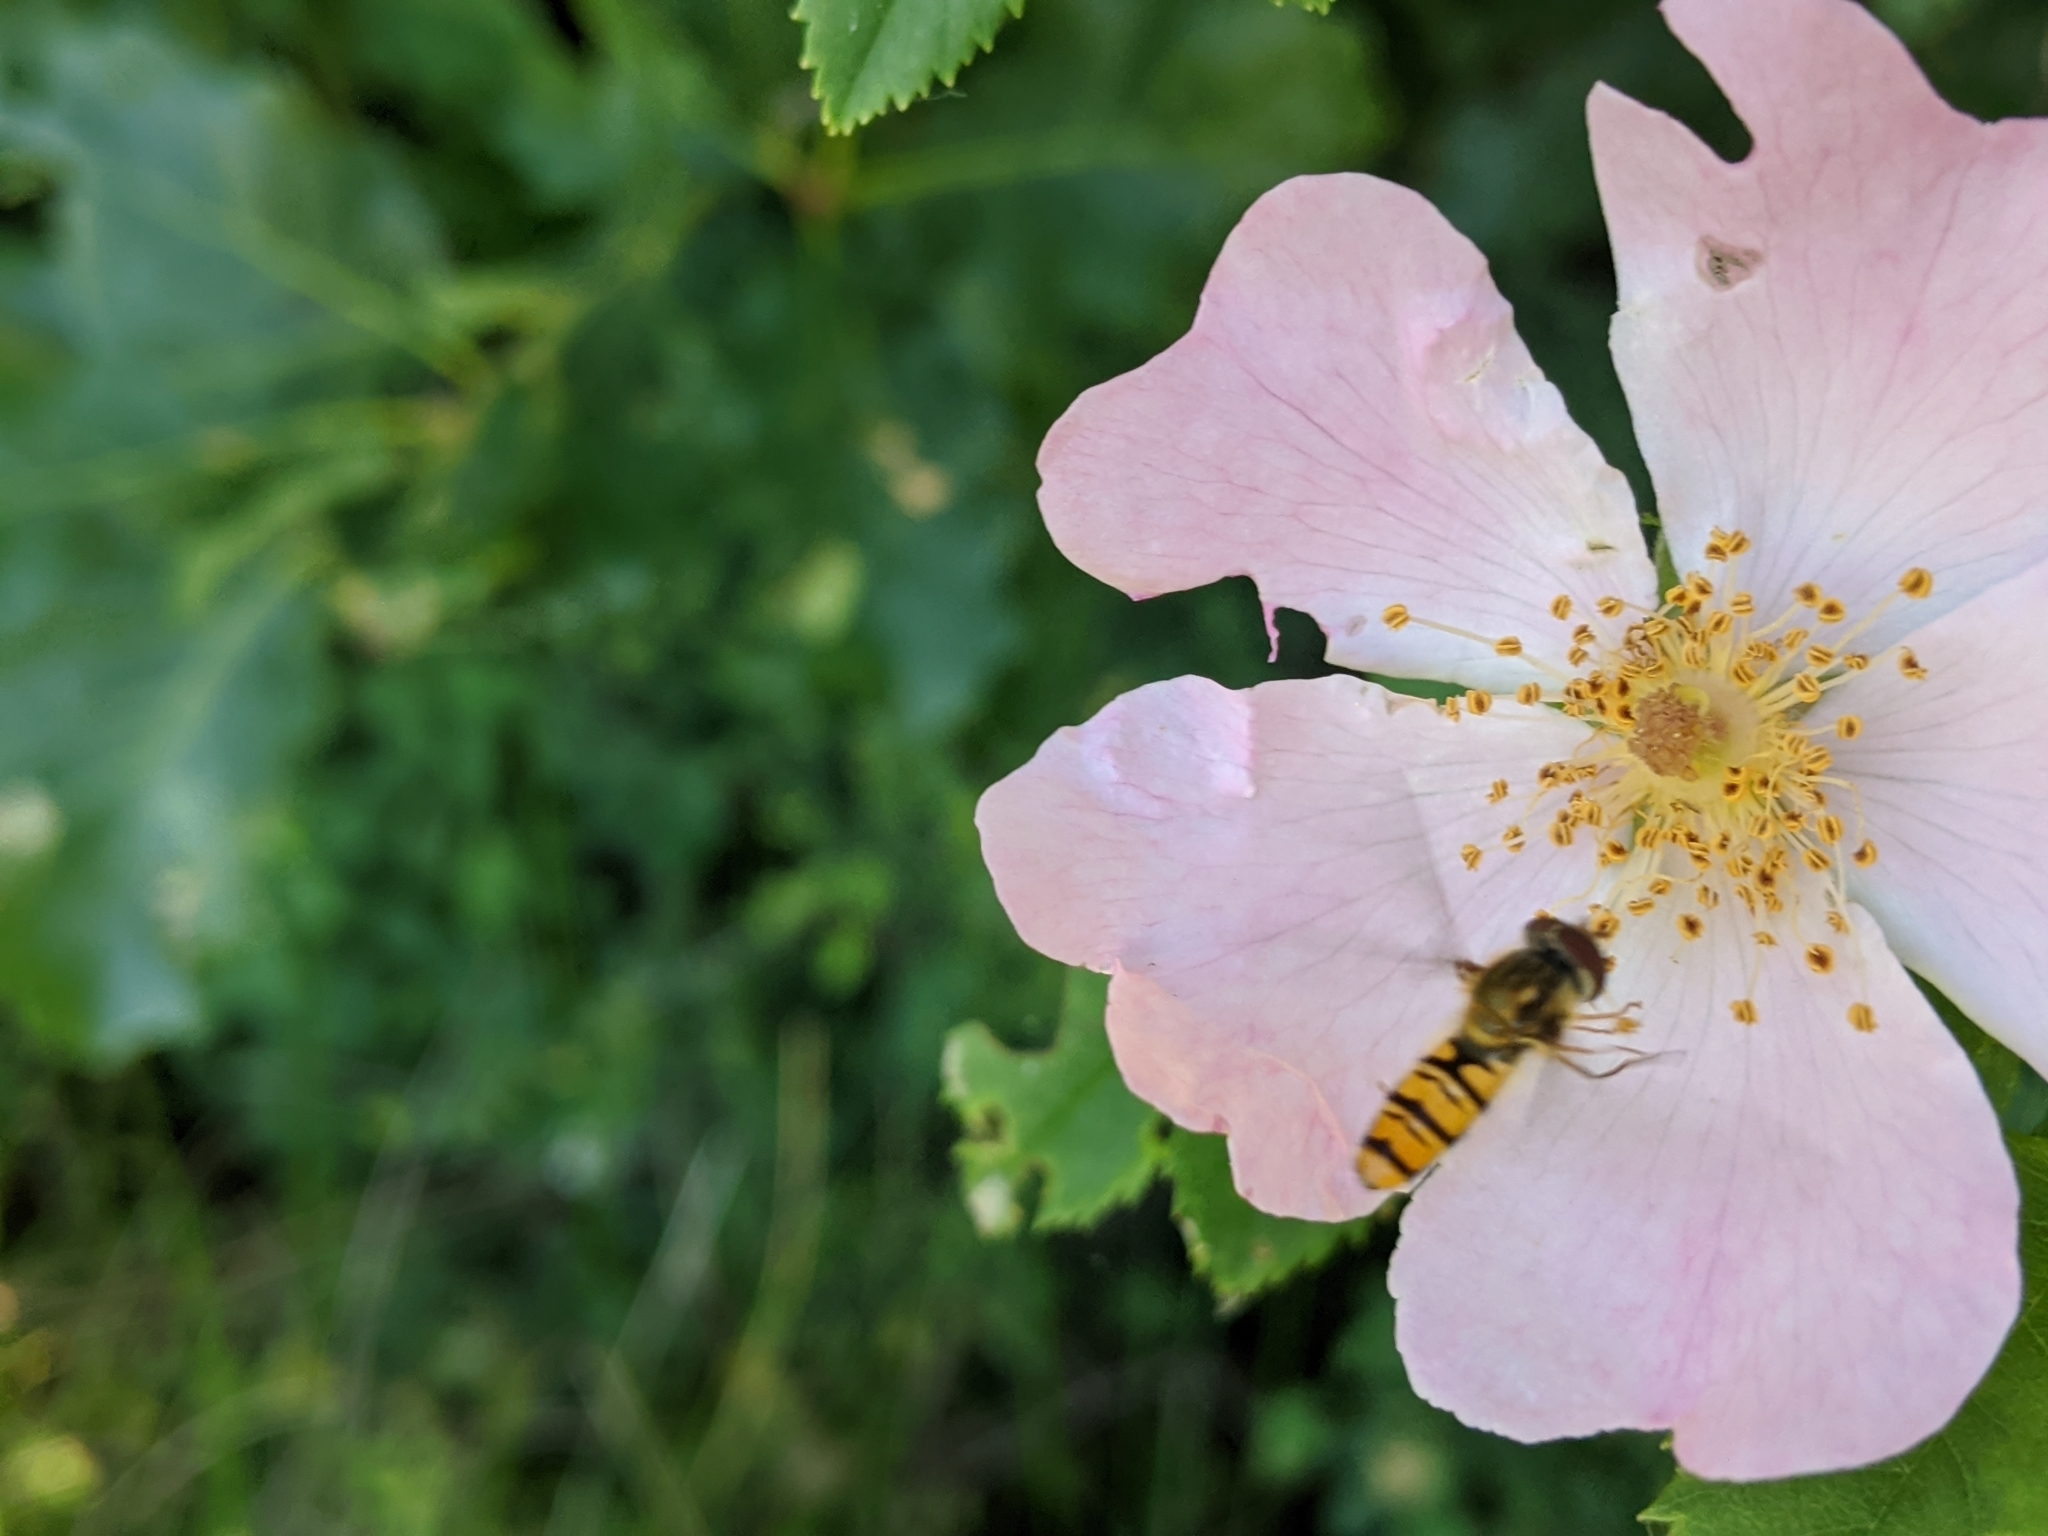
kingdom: Animalia
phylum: Arthropoda
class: Insecta
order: Diptera
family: Syrphidae
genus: Episyrphus
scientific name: Episyrphus balteatus
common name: Marmalade hoverfly
